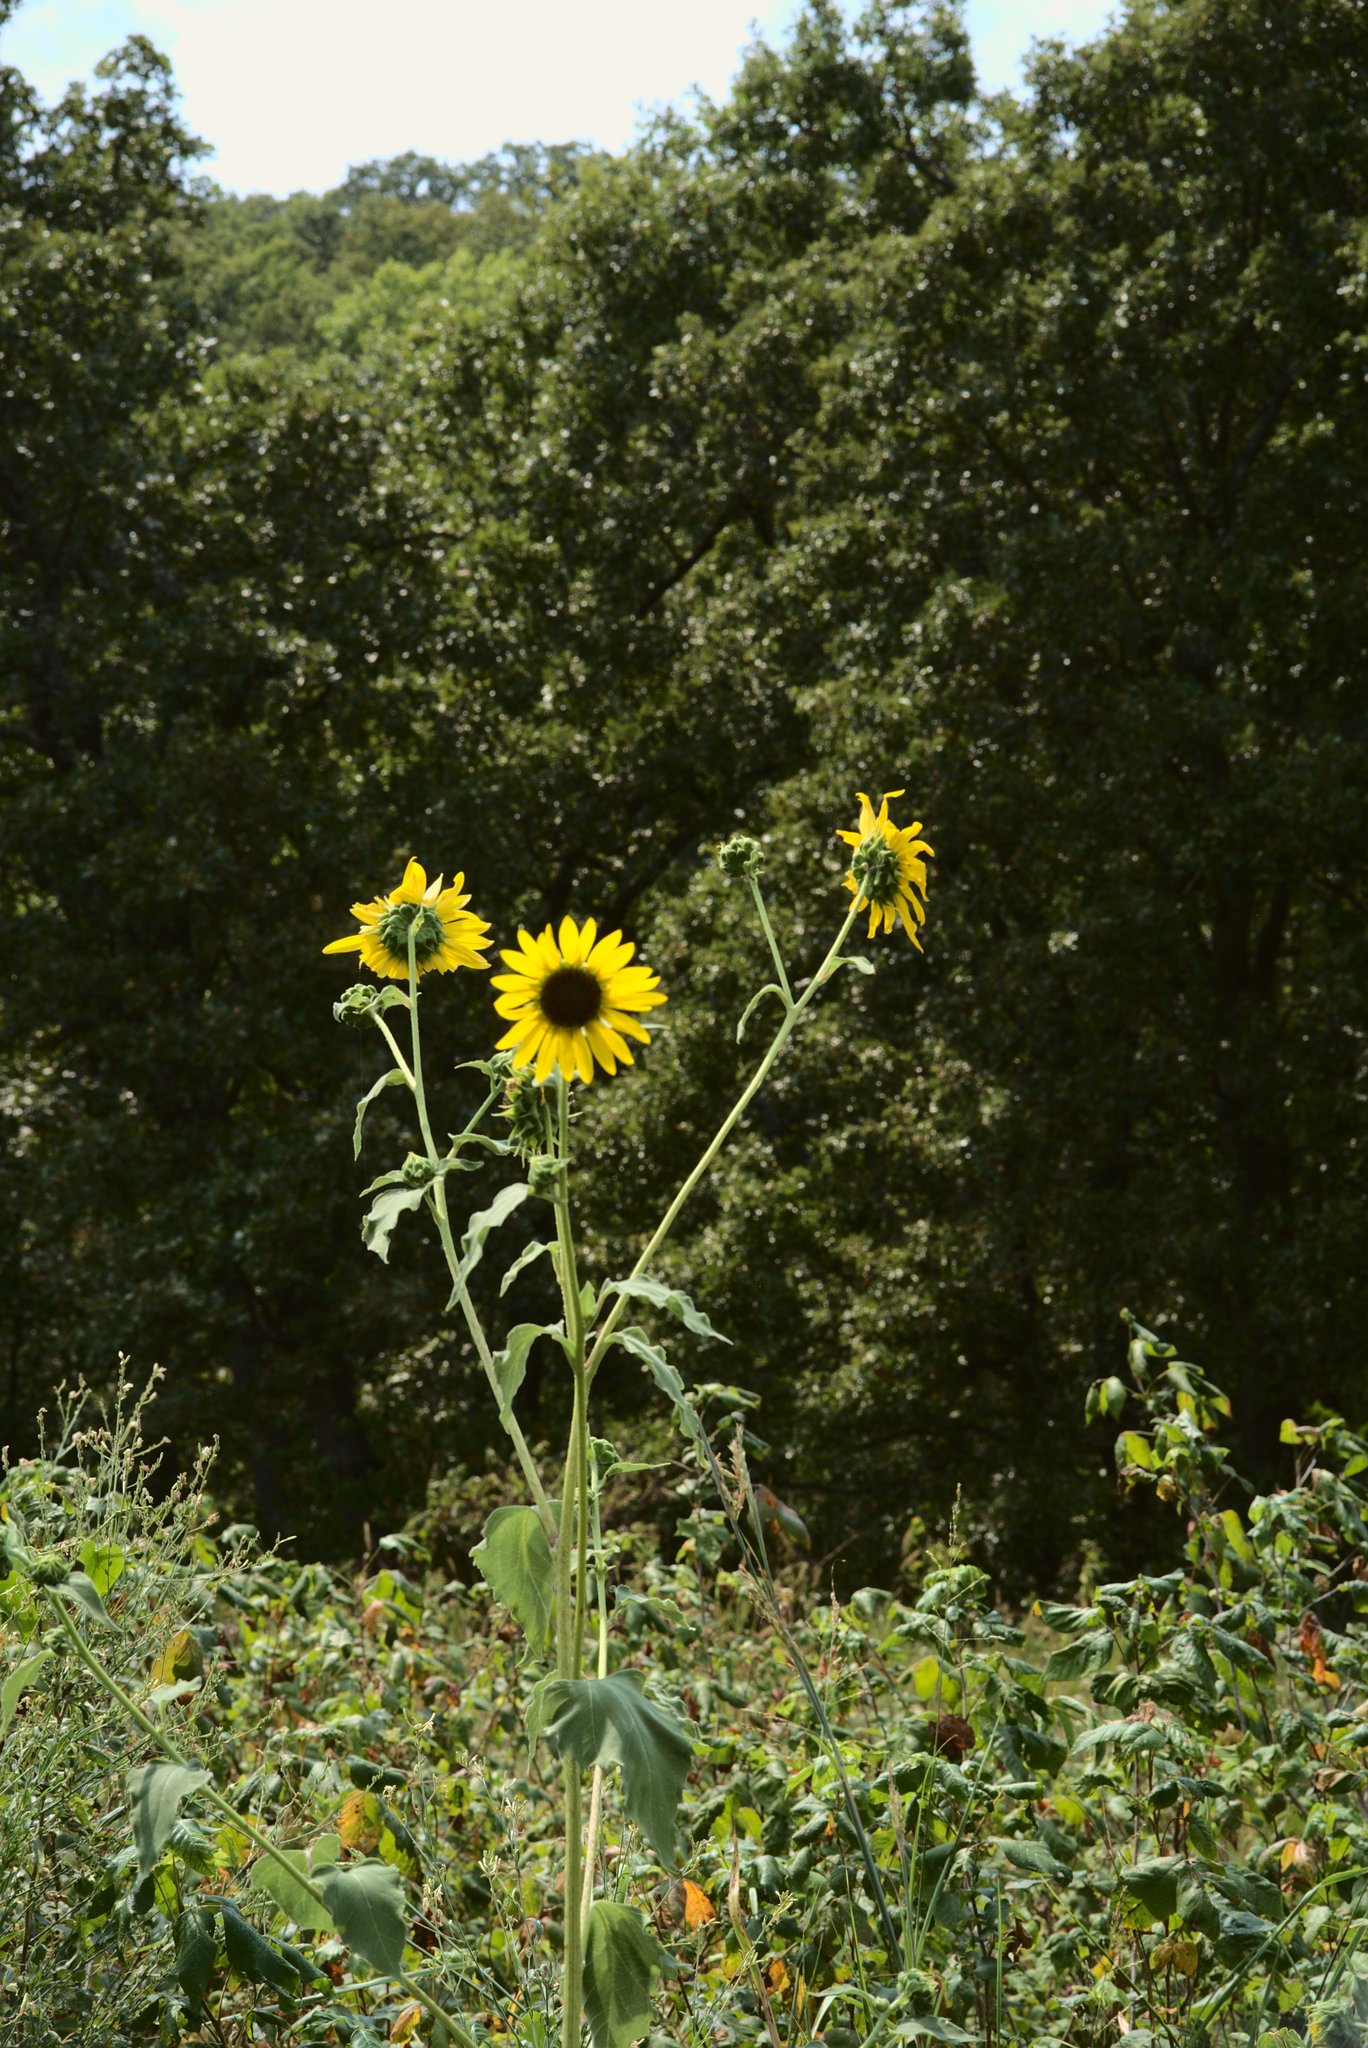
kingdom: Plantae
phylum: Tracheophyta
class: Magnoliopsida
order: Asterales
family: Asteraceae
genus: Helianthus
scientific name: Helianthus annuus
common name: Sunflower
